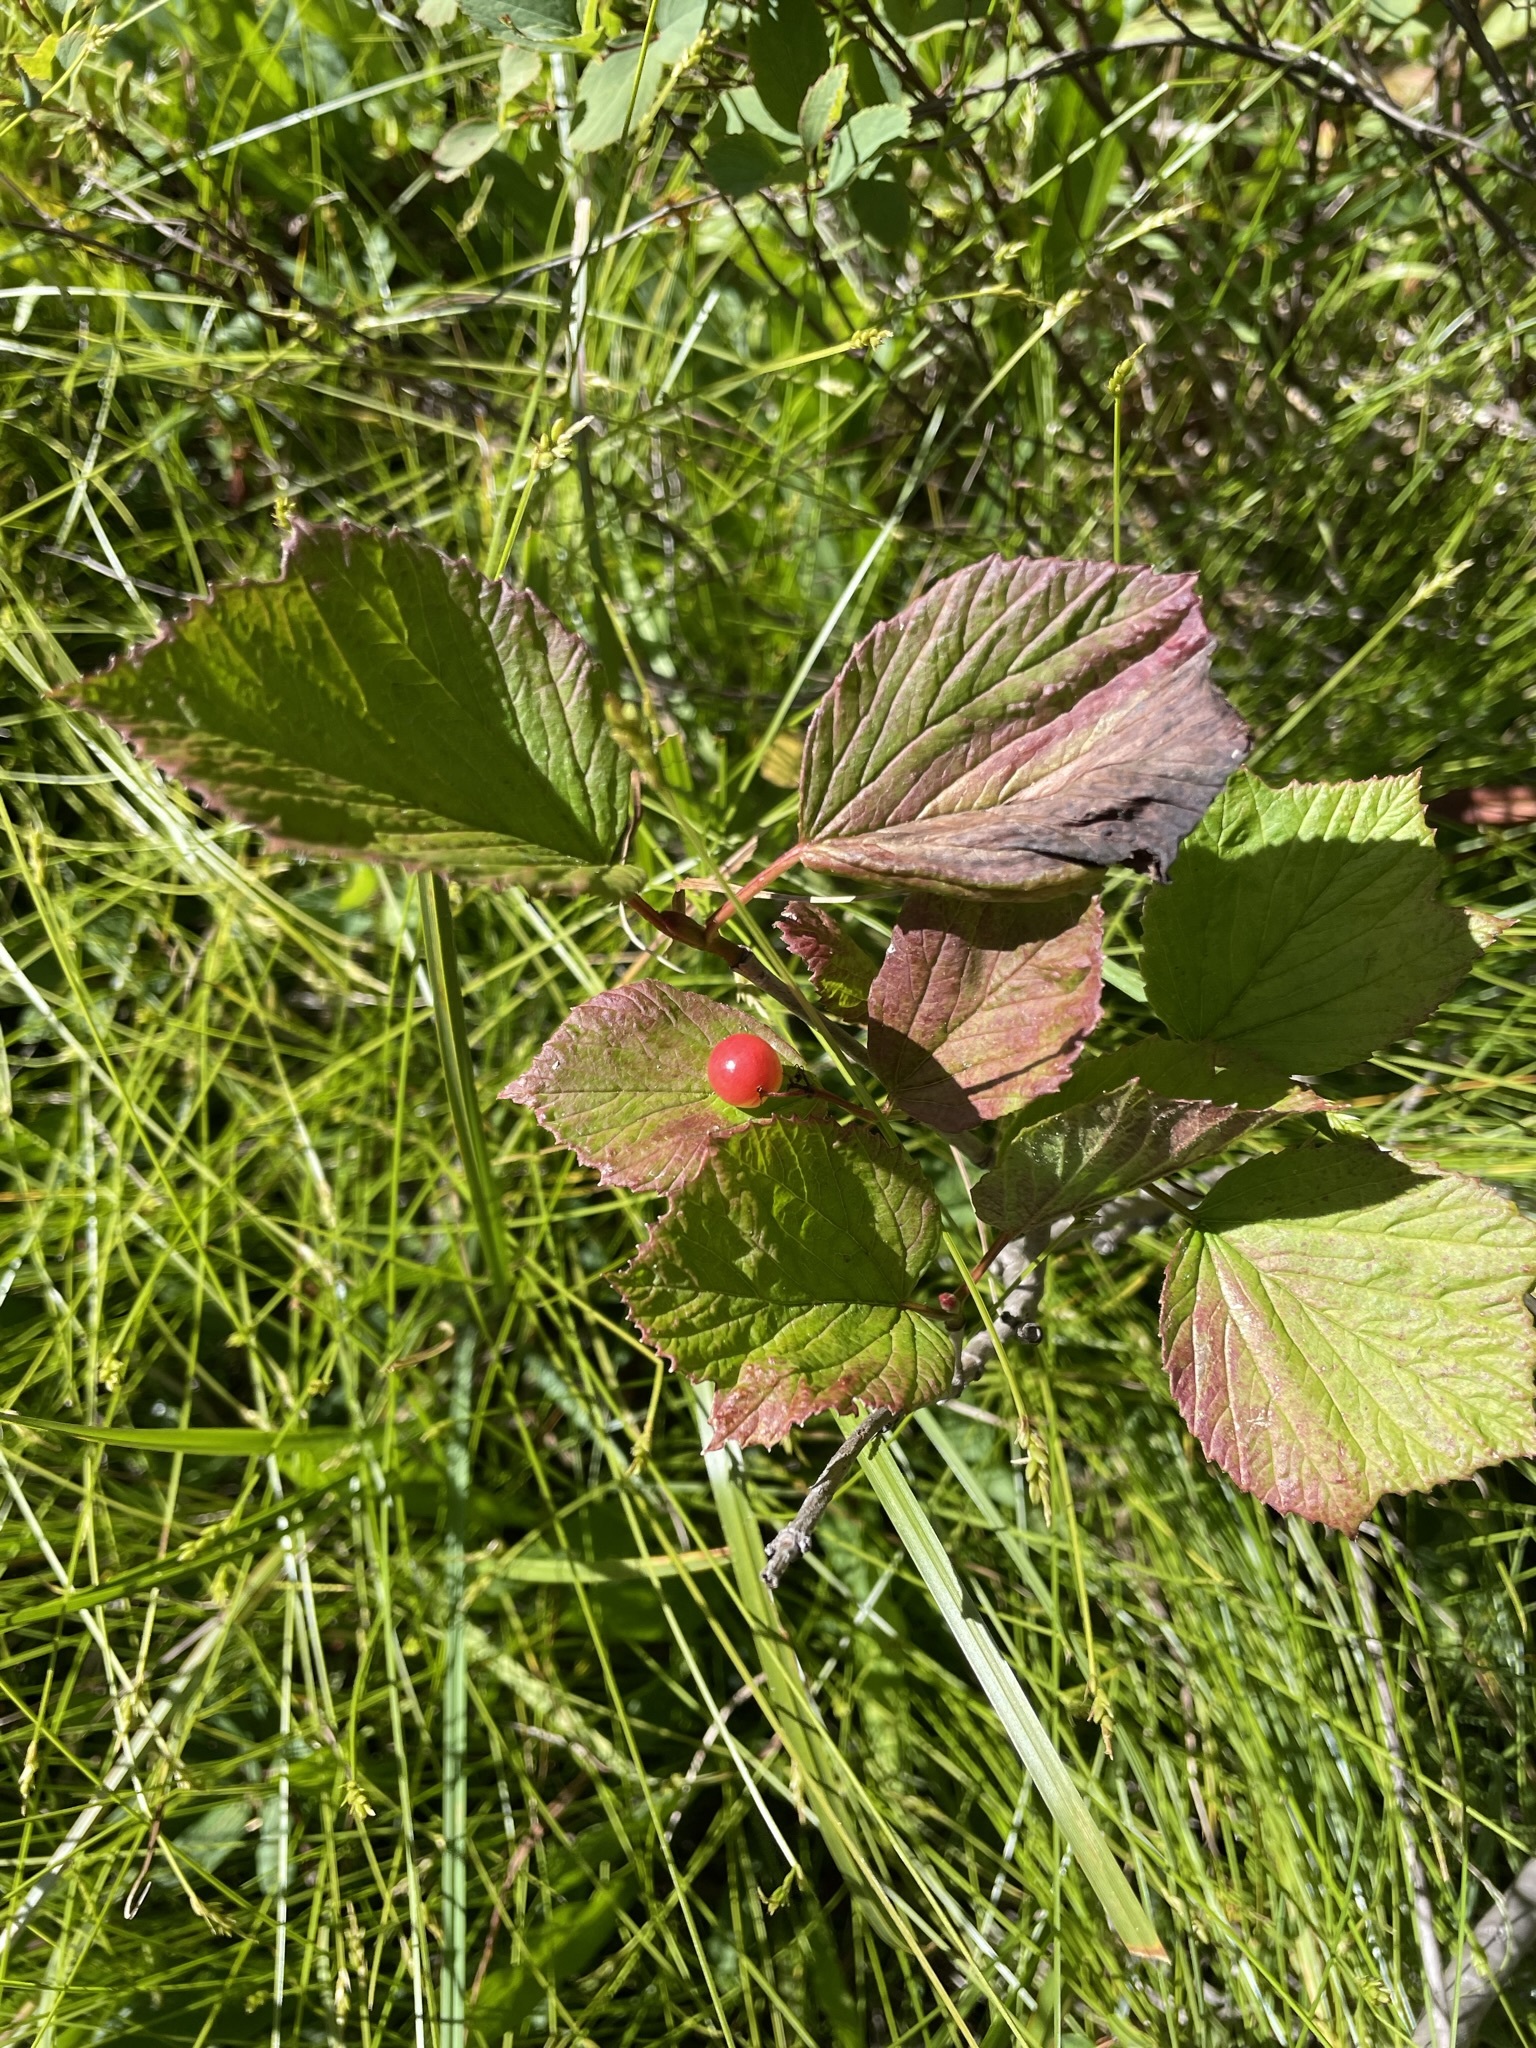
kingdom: Plantae
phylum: Tracheophyta
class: Magnoliopsida
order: Dipsacales
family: Viburnaceae
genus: Viburnum
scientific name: Viburnum edule
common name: Mooseberry
